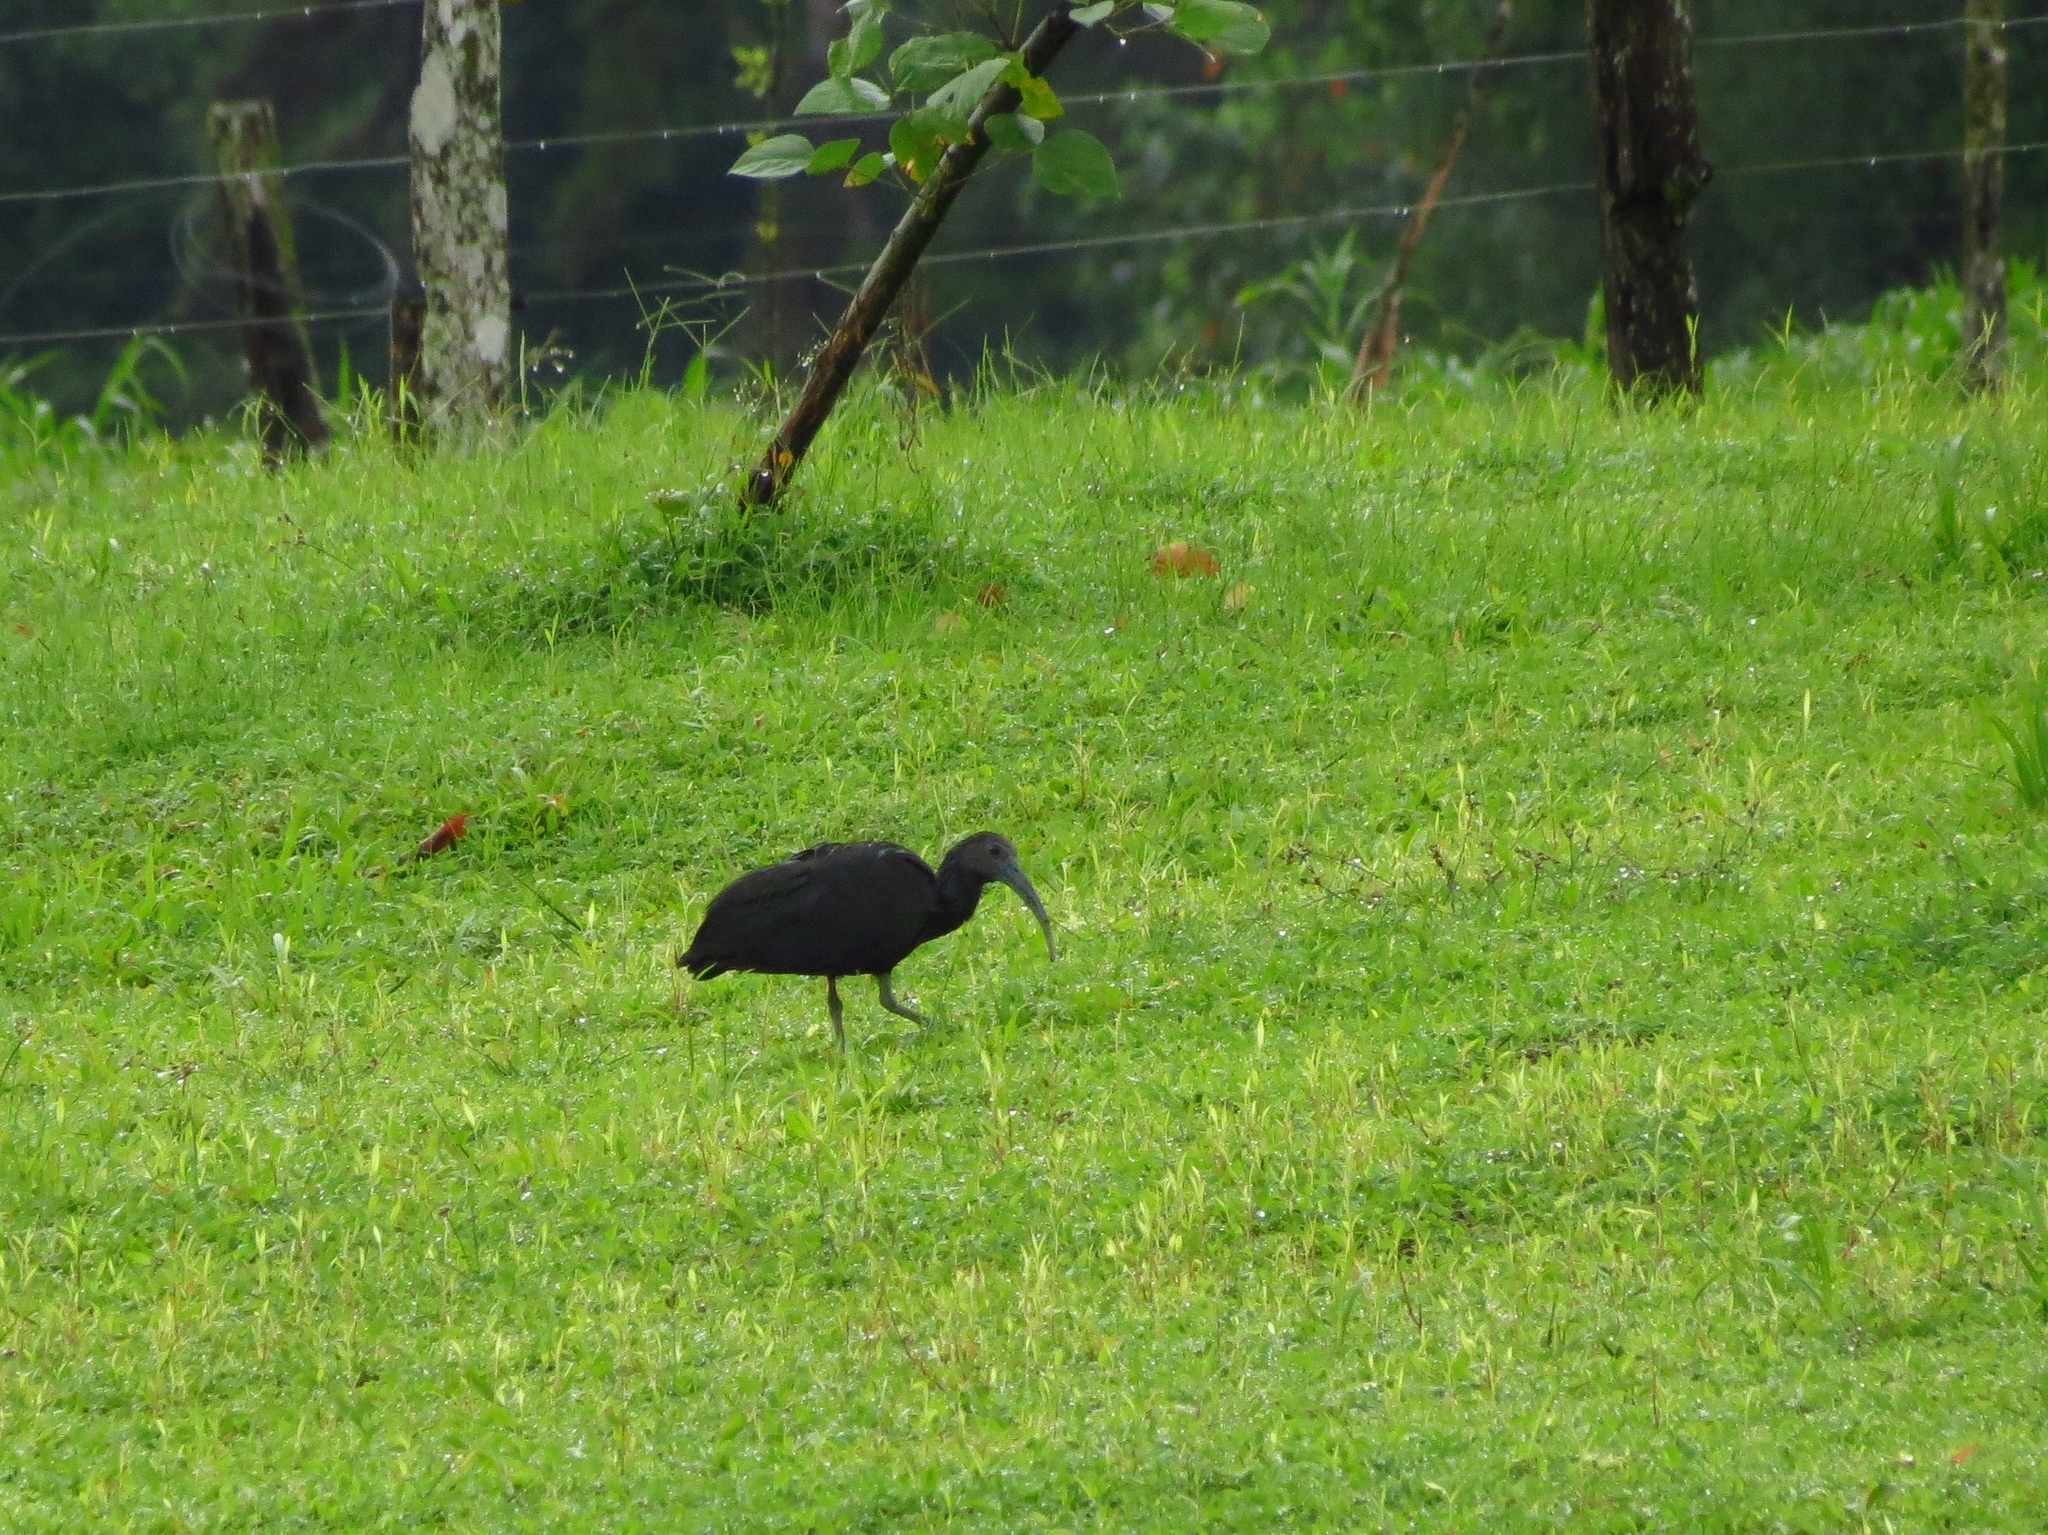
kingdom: Animalia
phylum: Chordata
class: Aves
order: Pelecaniformes
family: Threskiornithidae
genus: Mesembrinibis
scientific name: Mesembrinibis cayennensis
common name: Green ibis
